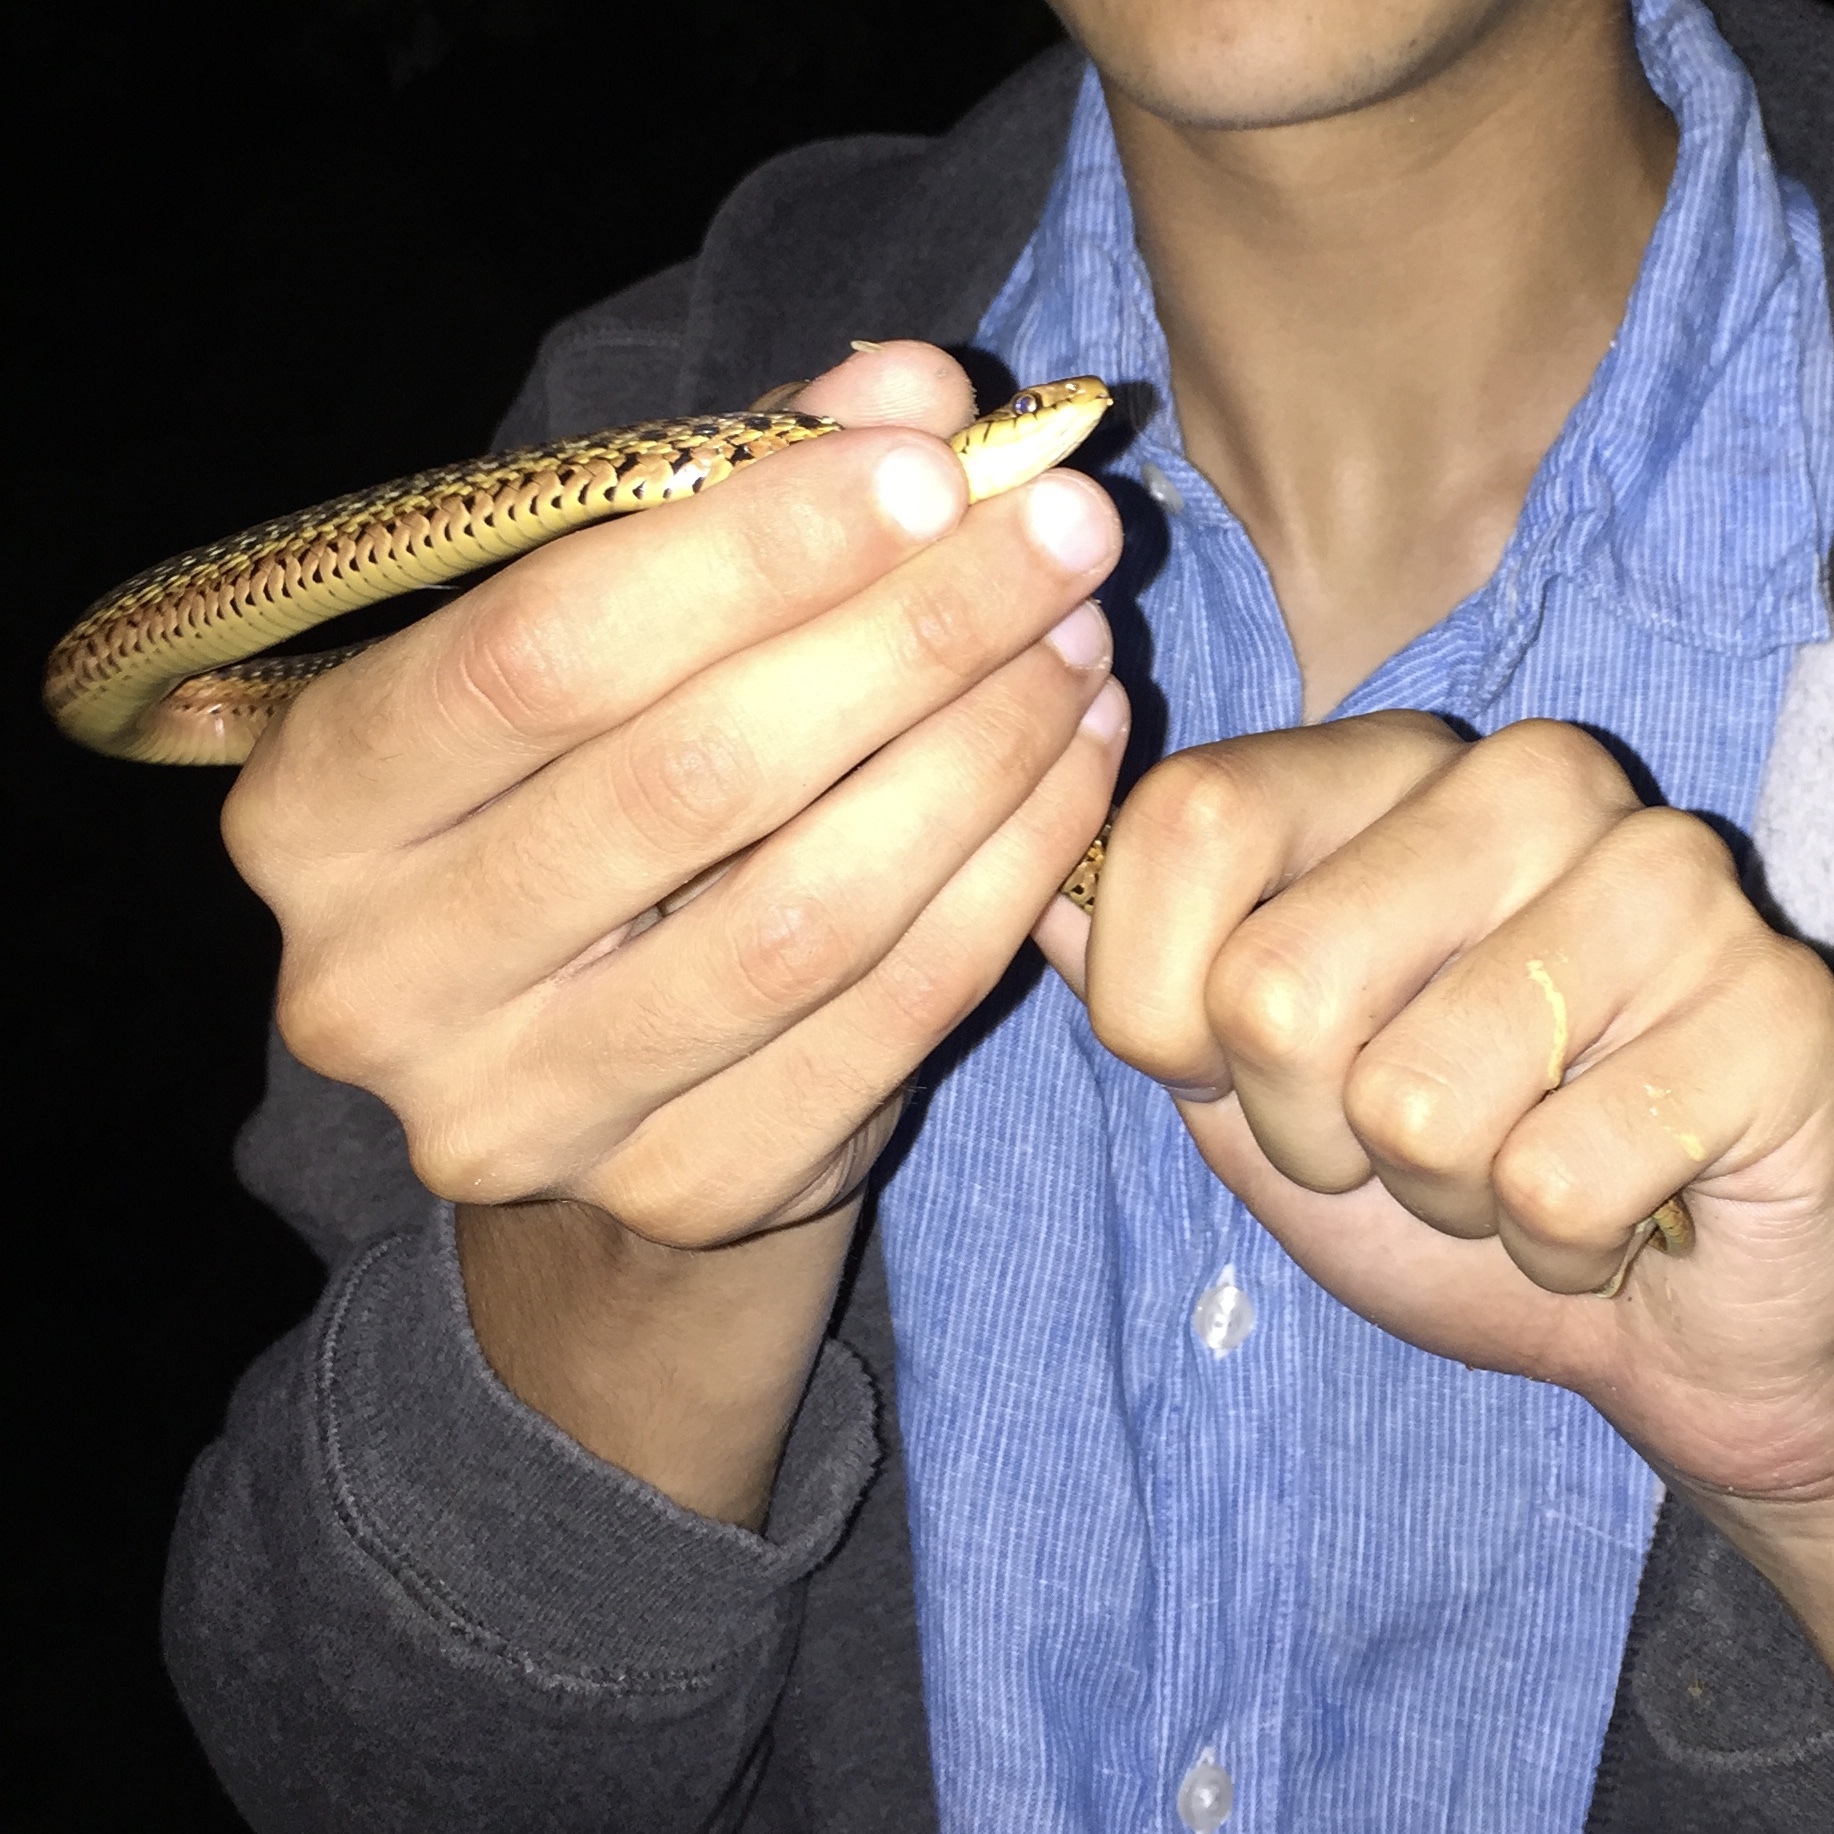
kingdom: Animalia
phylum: Chordata
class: Squamata
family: Colubridae
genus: Thamnophis
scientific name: Thamnophis sirtalis
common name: Common garter snake
